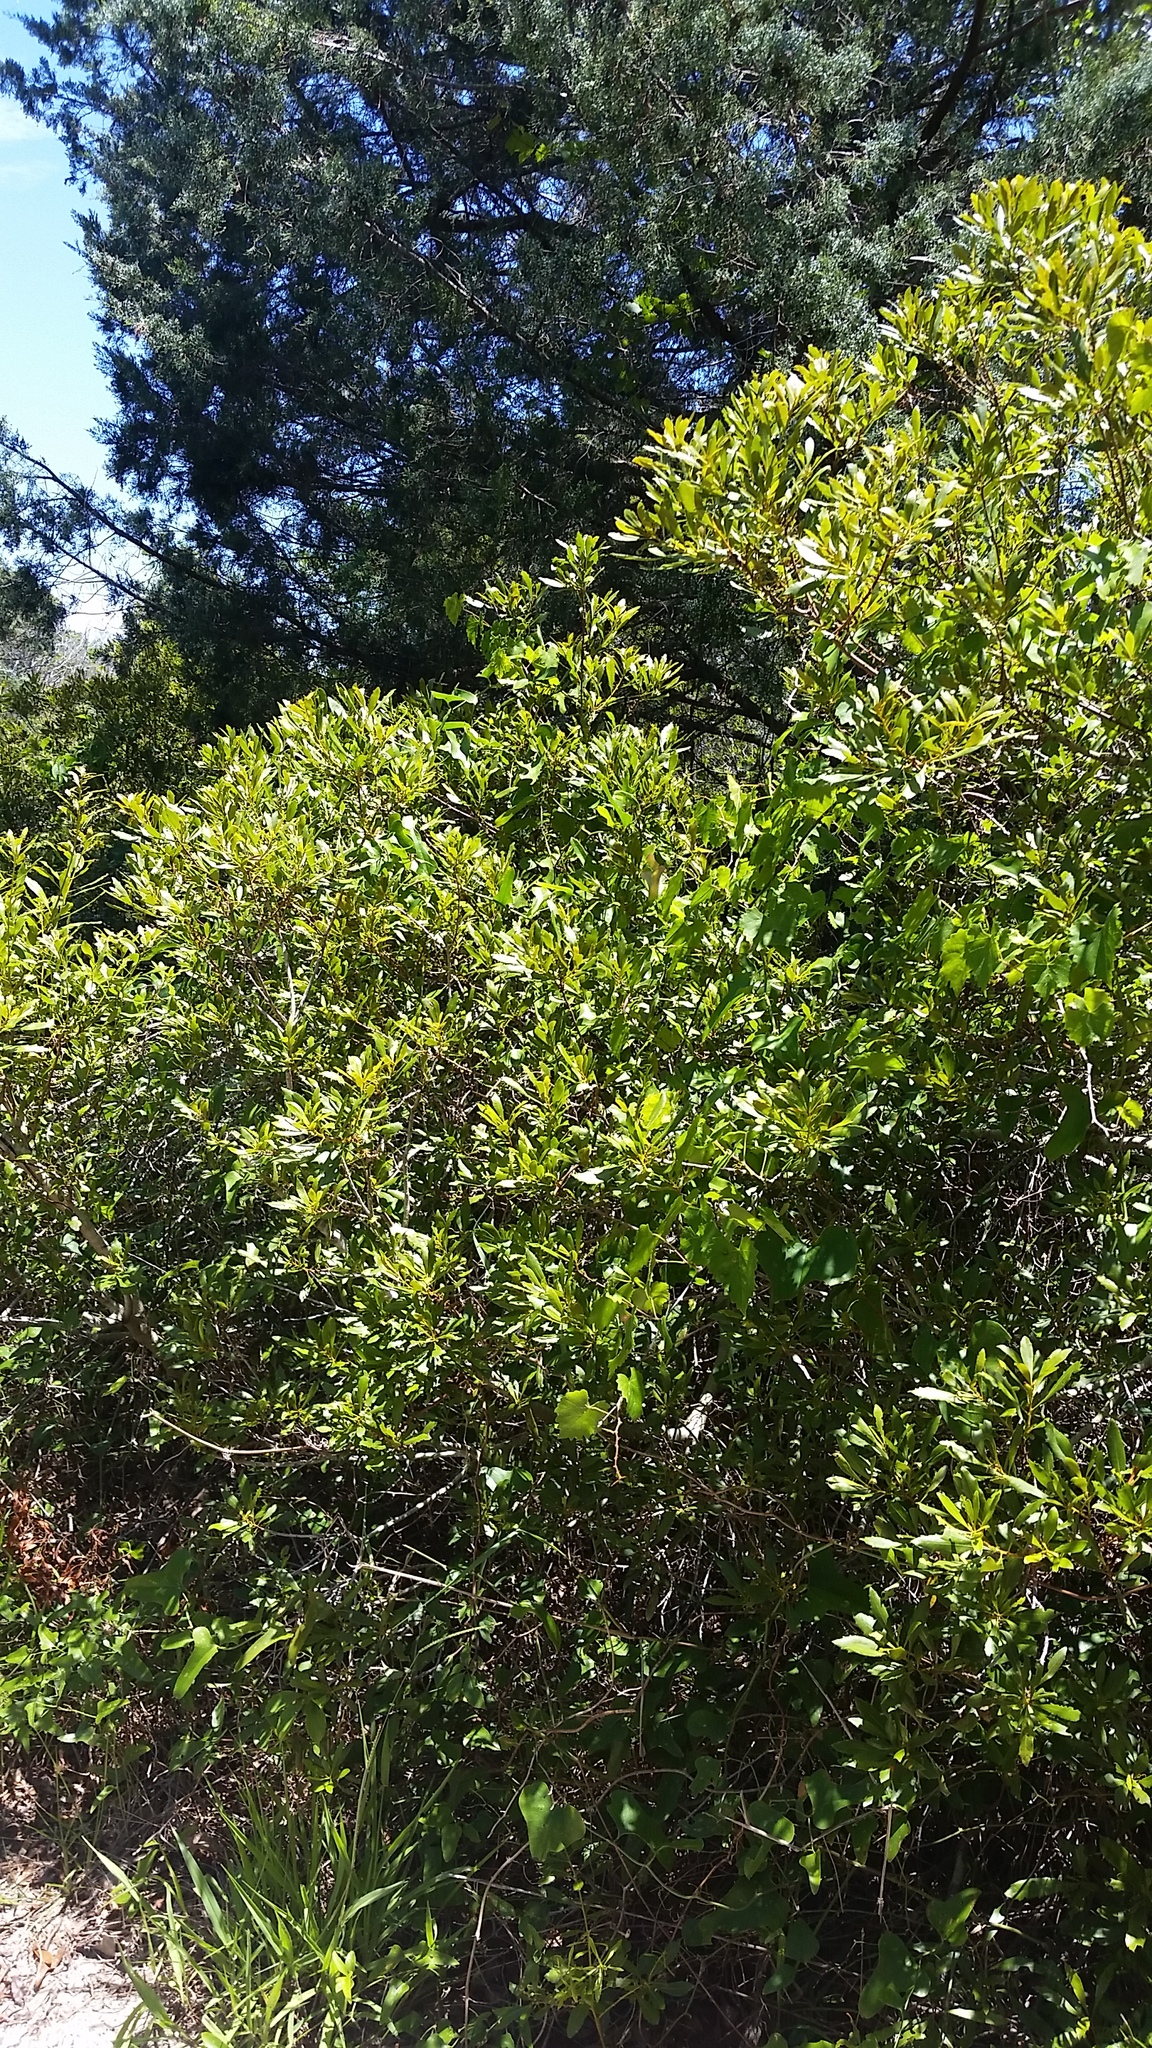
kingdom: Plantae
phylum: Tracheophyta
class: Magnoliopsida
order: Fagales
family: Myricaceae
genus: Morella
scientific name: Morella cerifera
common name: Wax myrtle
